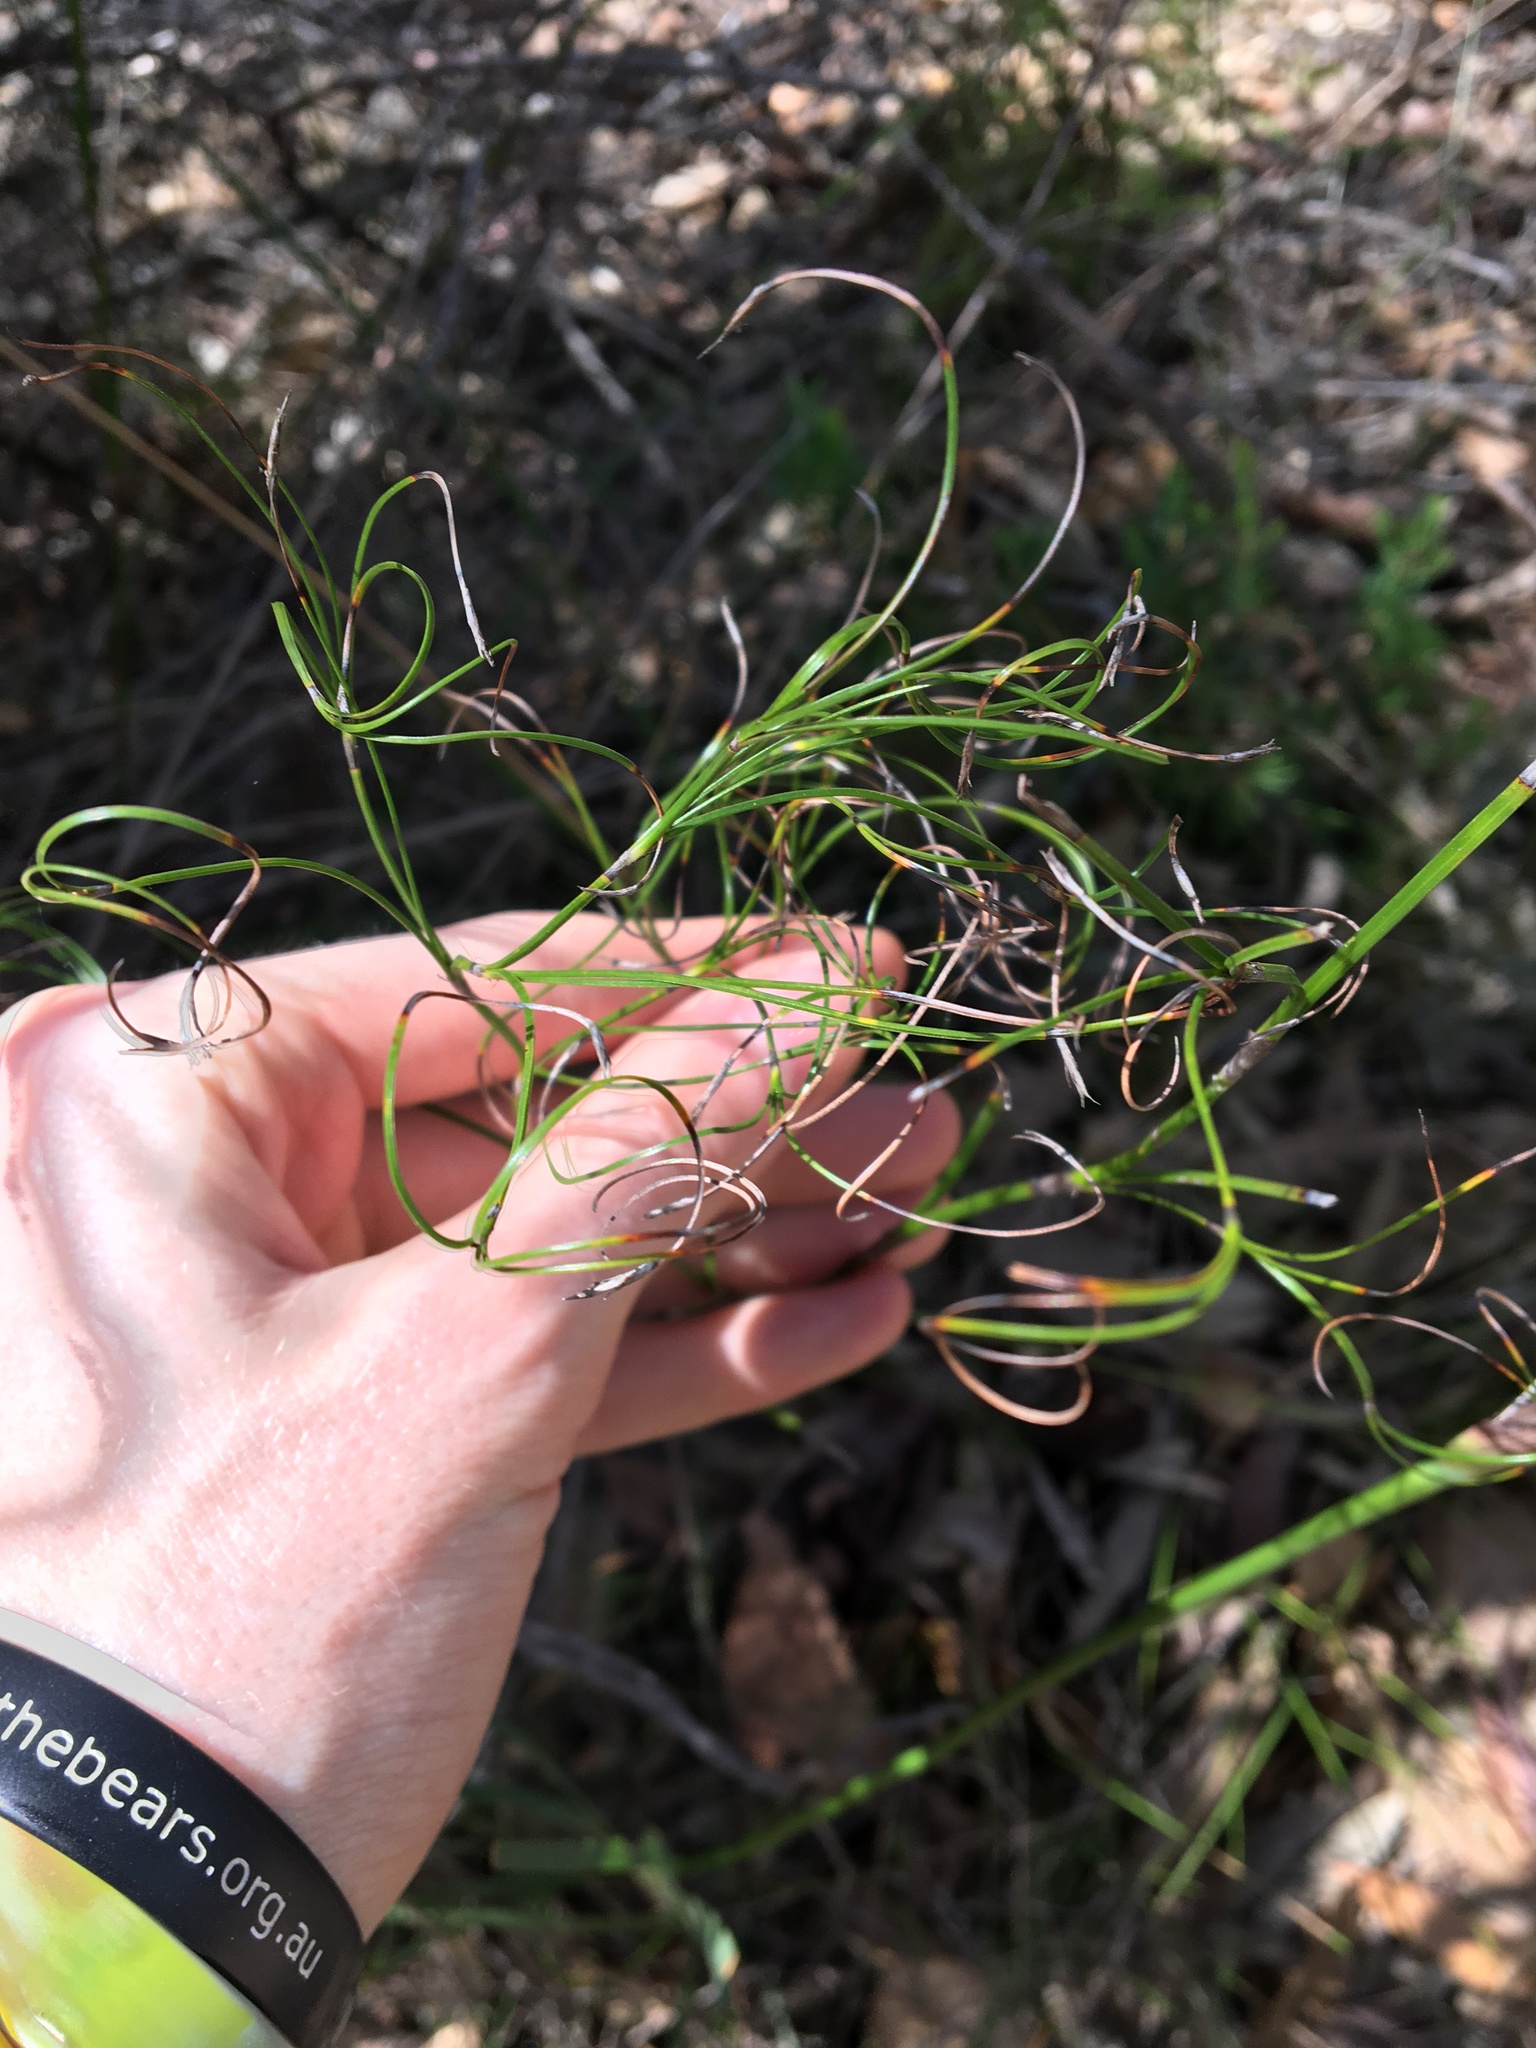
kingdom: Plantae
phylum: Tracheophyta
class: Liliopsida
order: Poales
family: Cyperaceae
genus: Caustis
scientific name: Caustis flexuosa
